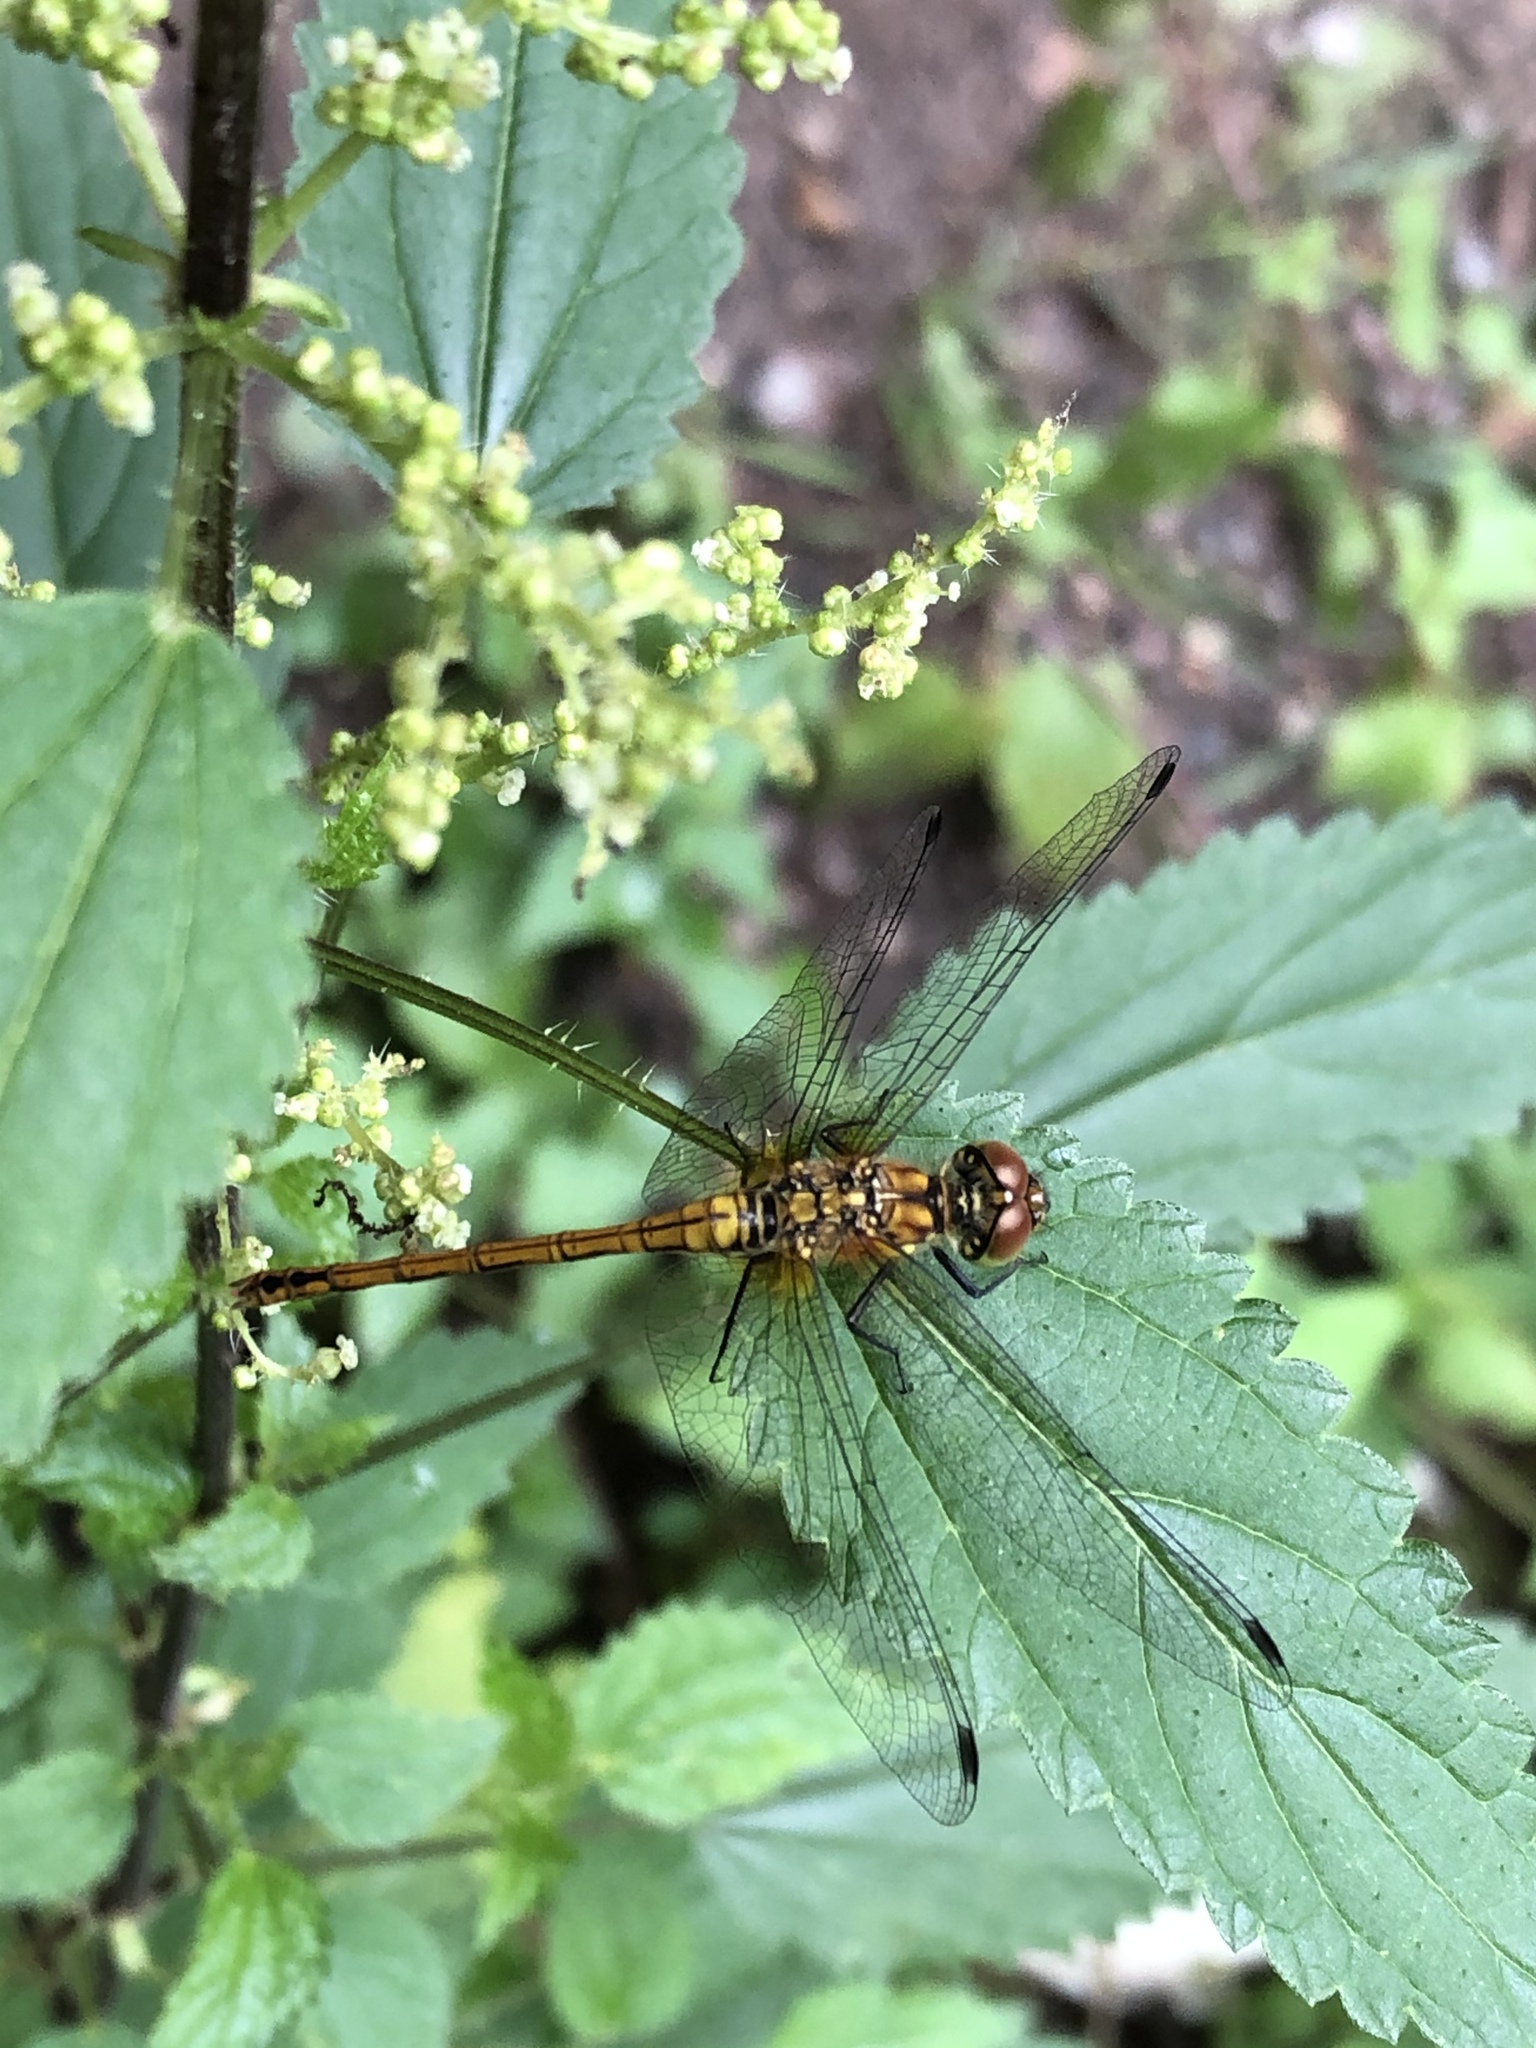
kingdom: Animalia
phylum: Arthropoda
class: Insecta
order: Odonata
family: Libellulidae
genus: Sympetrum
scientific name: Sympetrum sanguineum
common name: Ruddy darter
